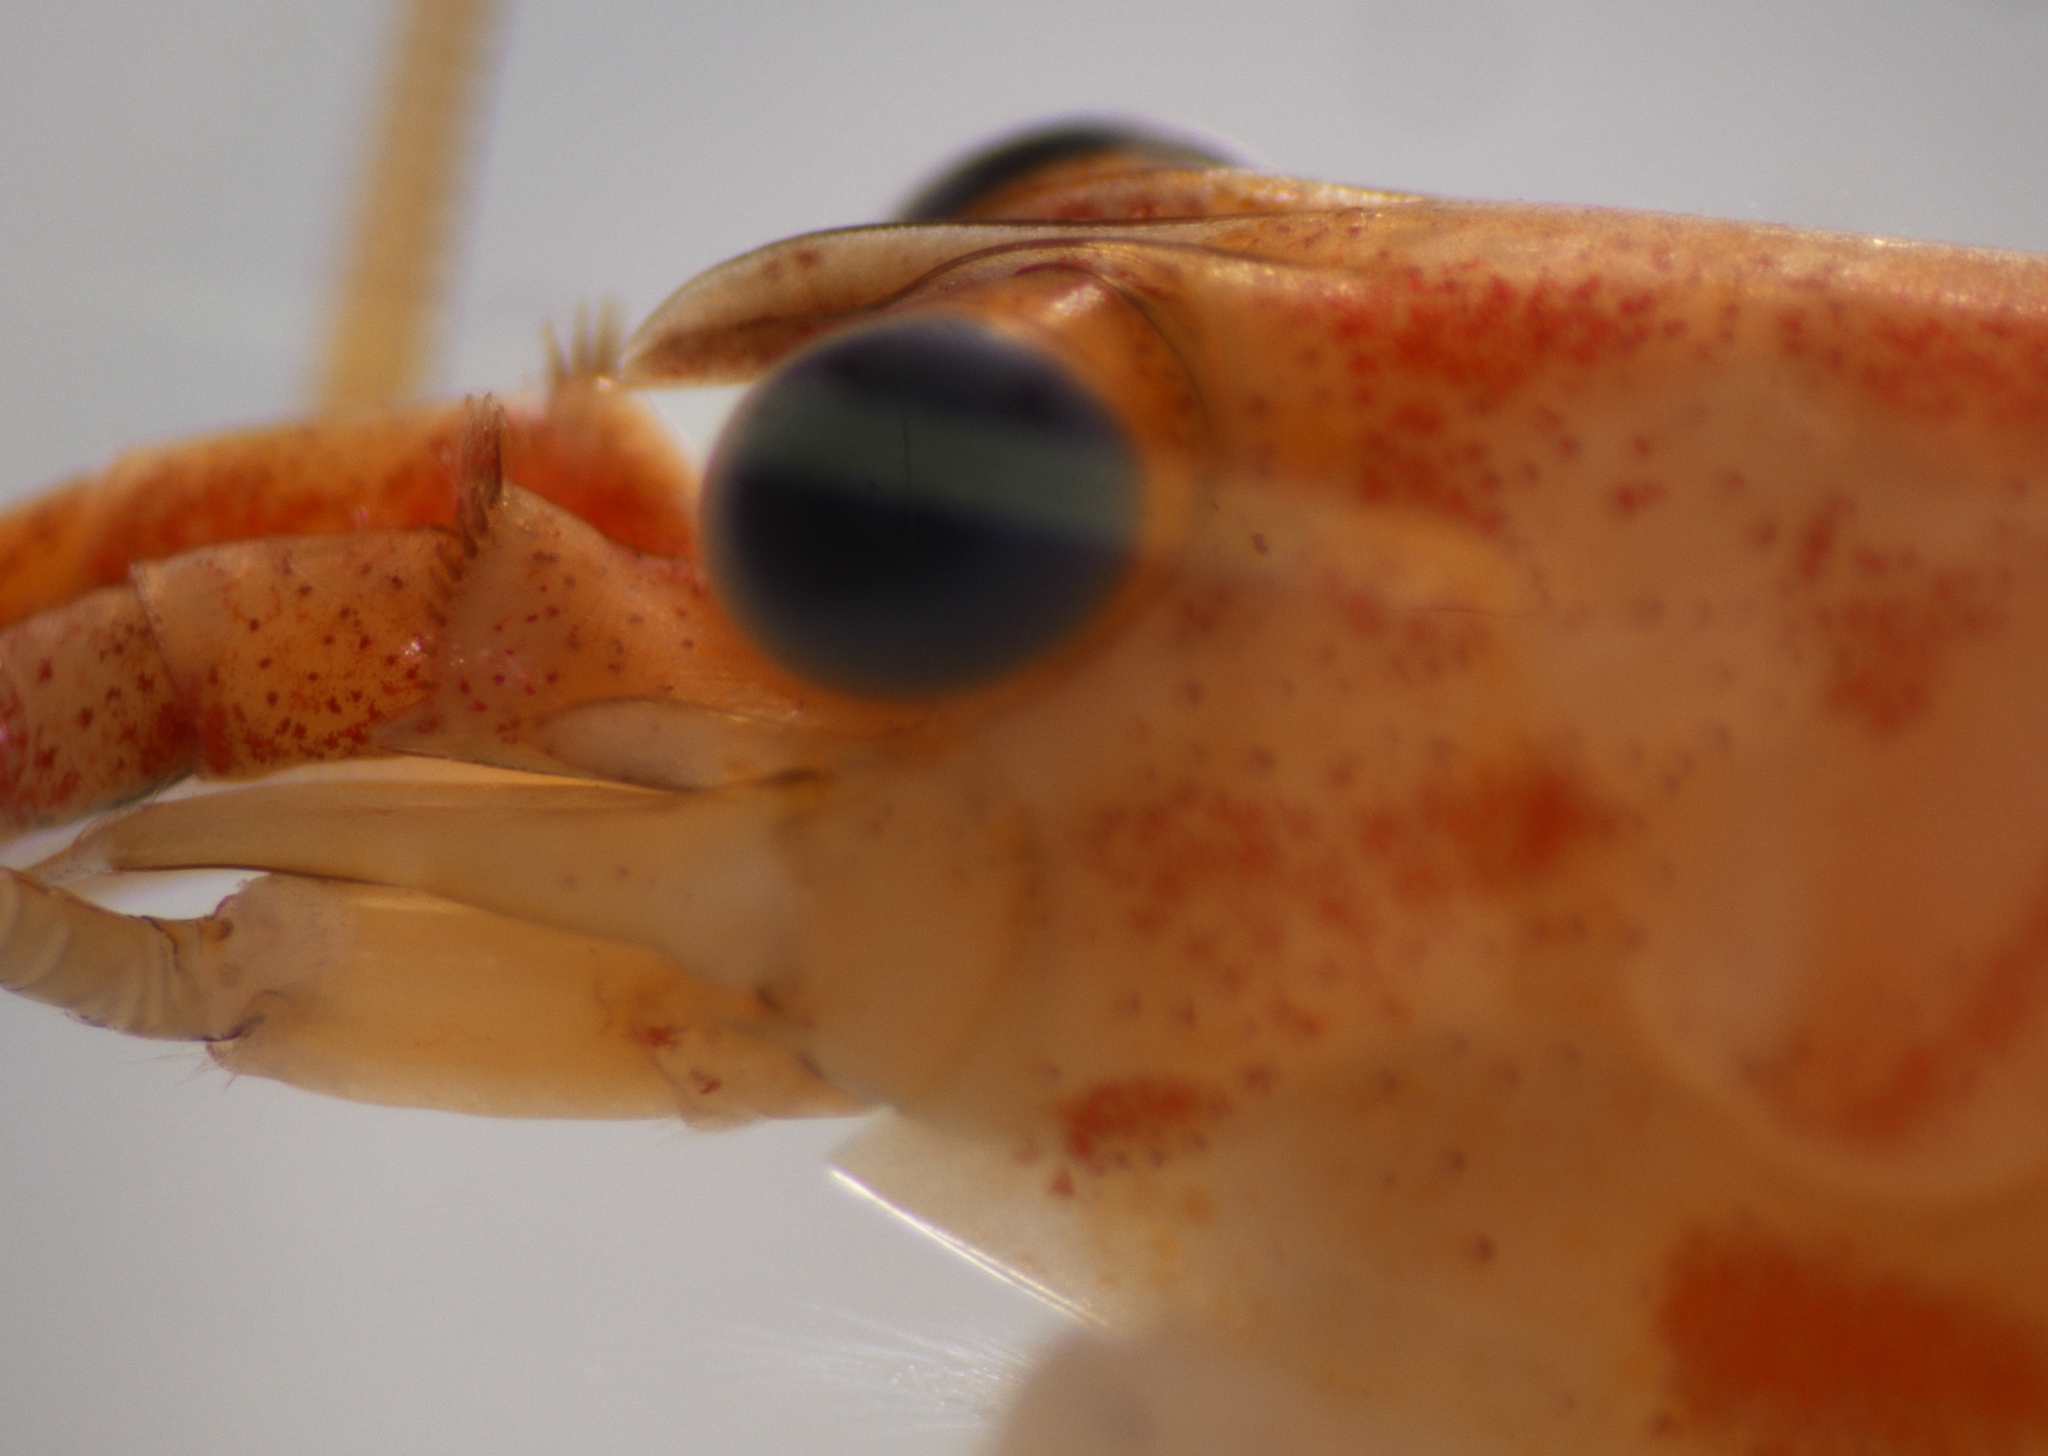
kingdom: Animalia
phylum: Arthropoda
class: Malacostraca
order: Decapoda
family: Atyidae
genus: Atyoida
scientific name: Atyoida tahitensis
